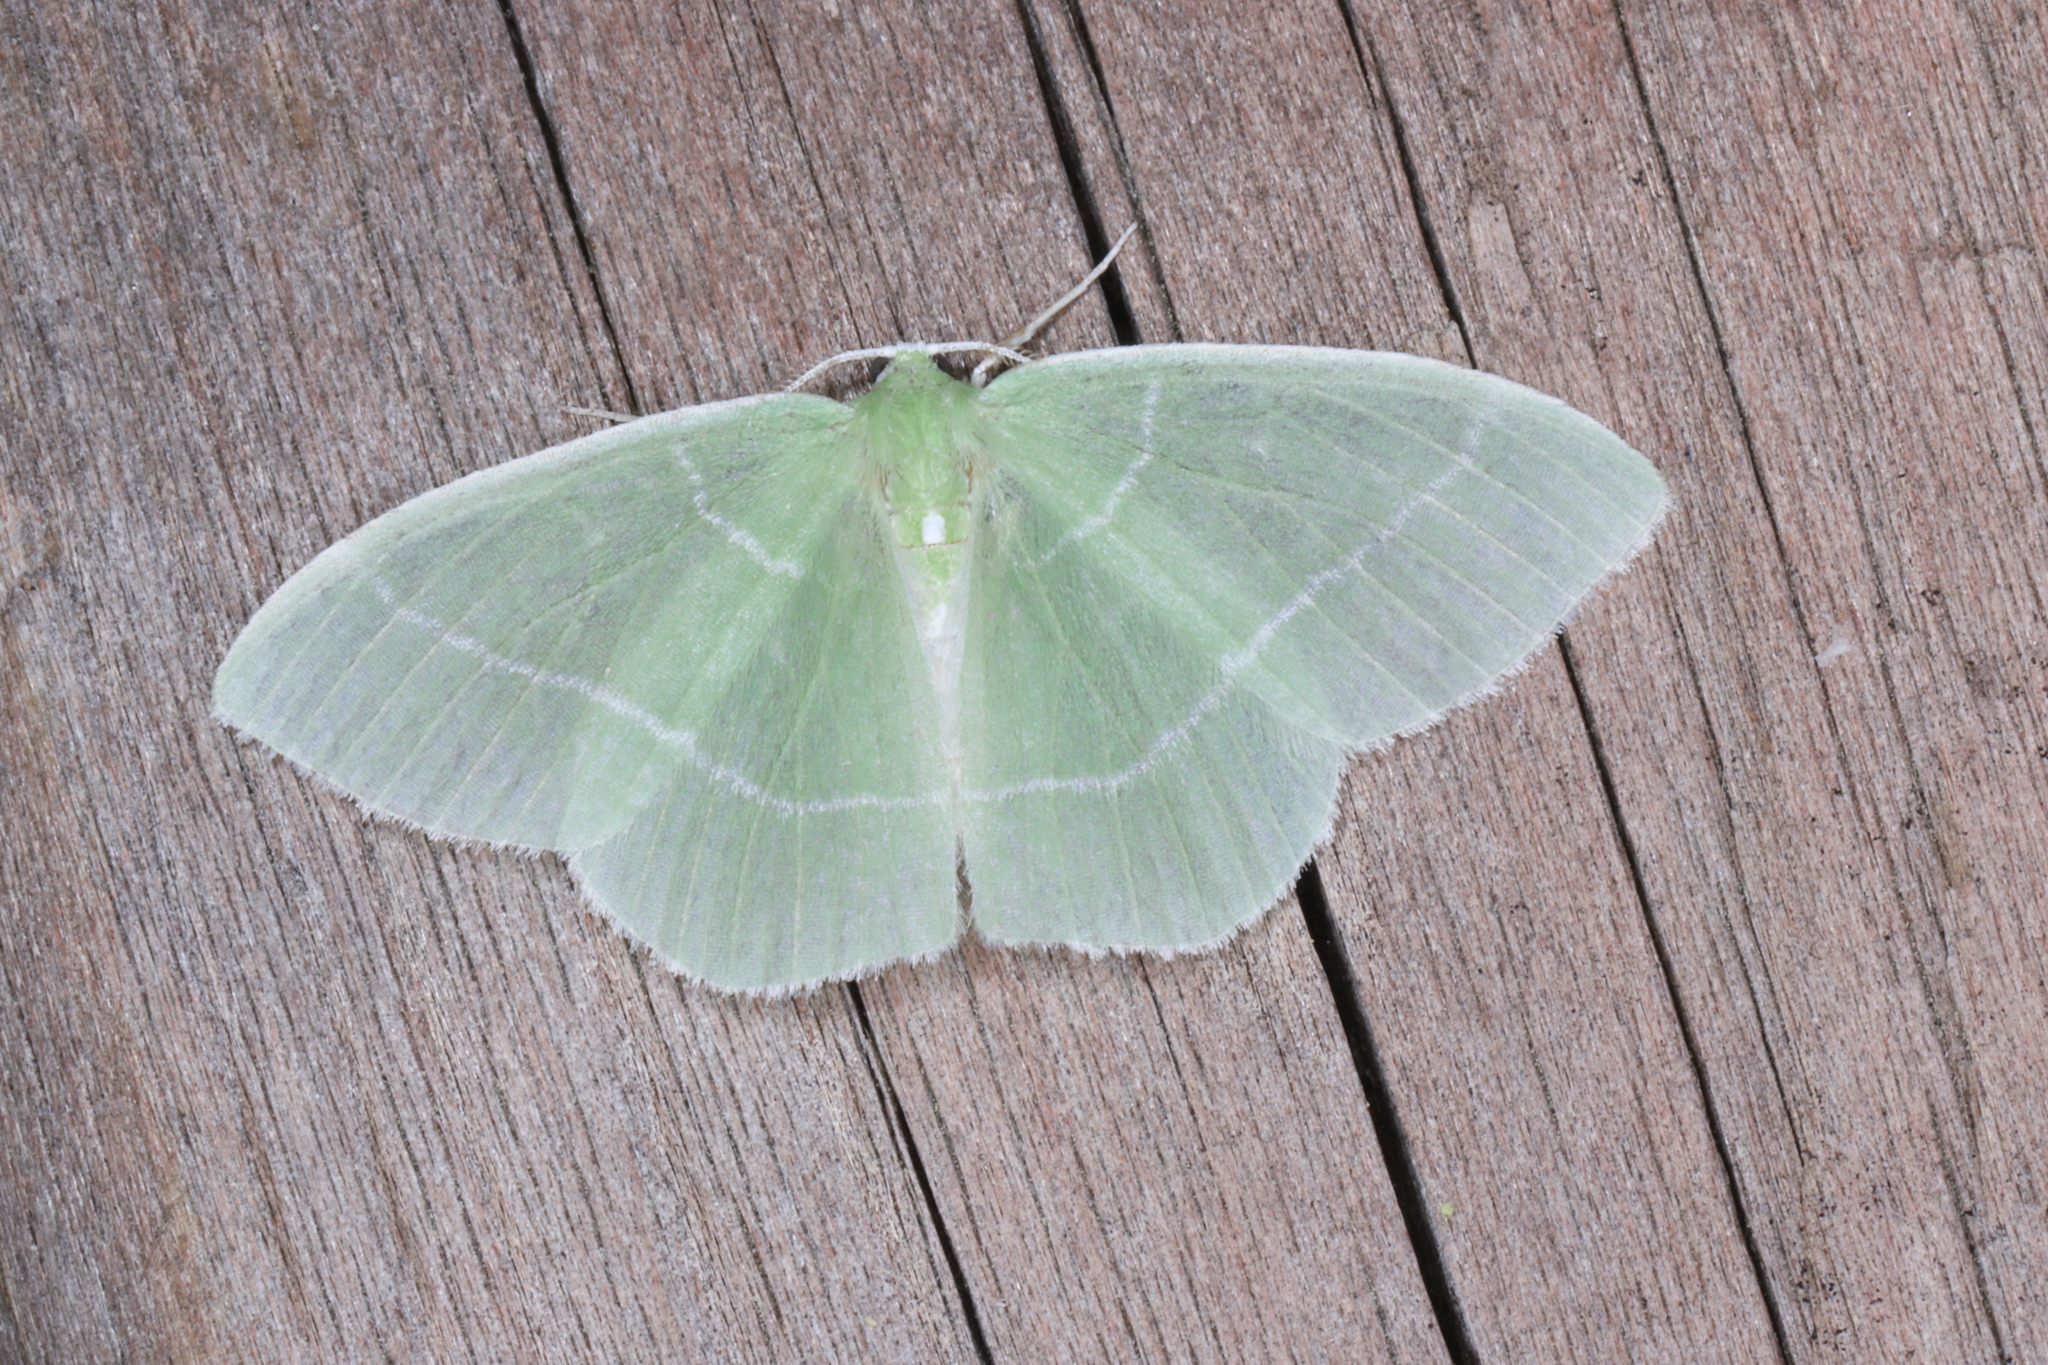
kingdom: Animalia
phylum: Arthropoda
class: Insecta
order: Lepidoptera
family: Geometridae
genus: Nemoria
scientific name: Nemoria mimosaria
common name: White-fringed emerald
